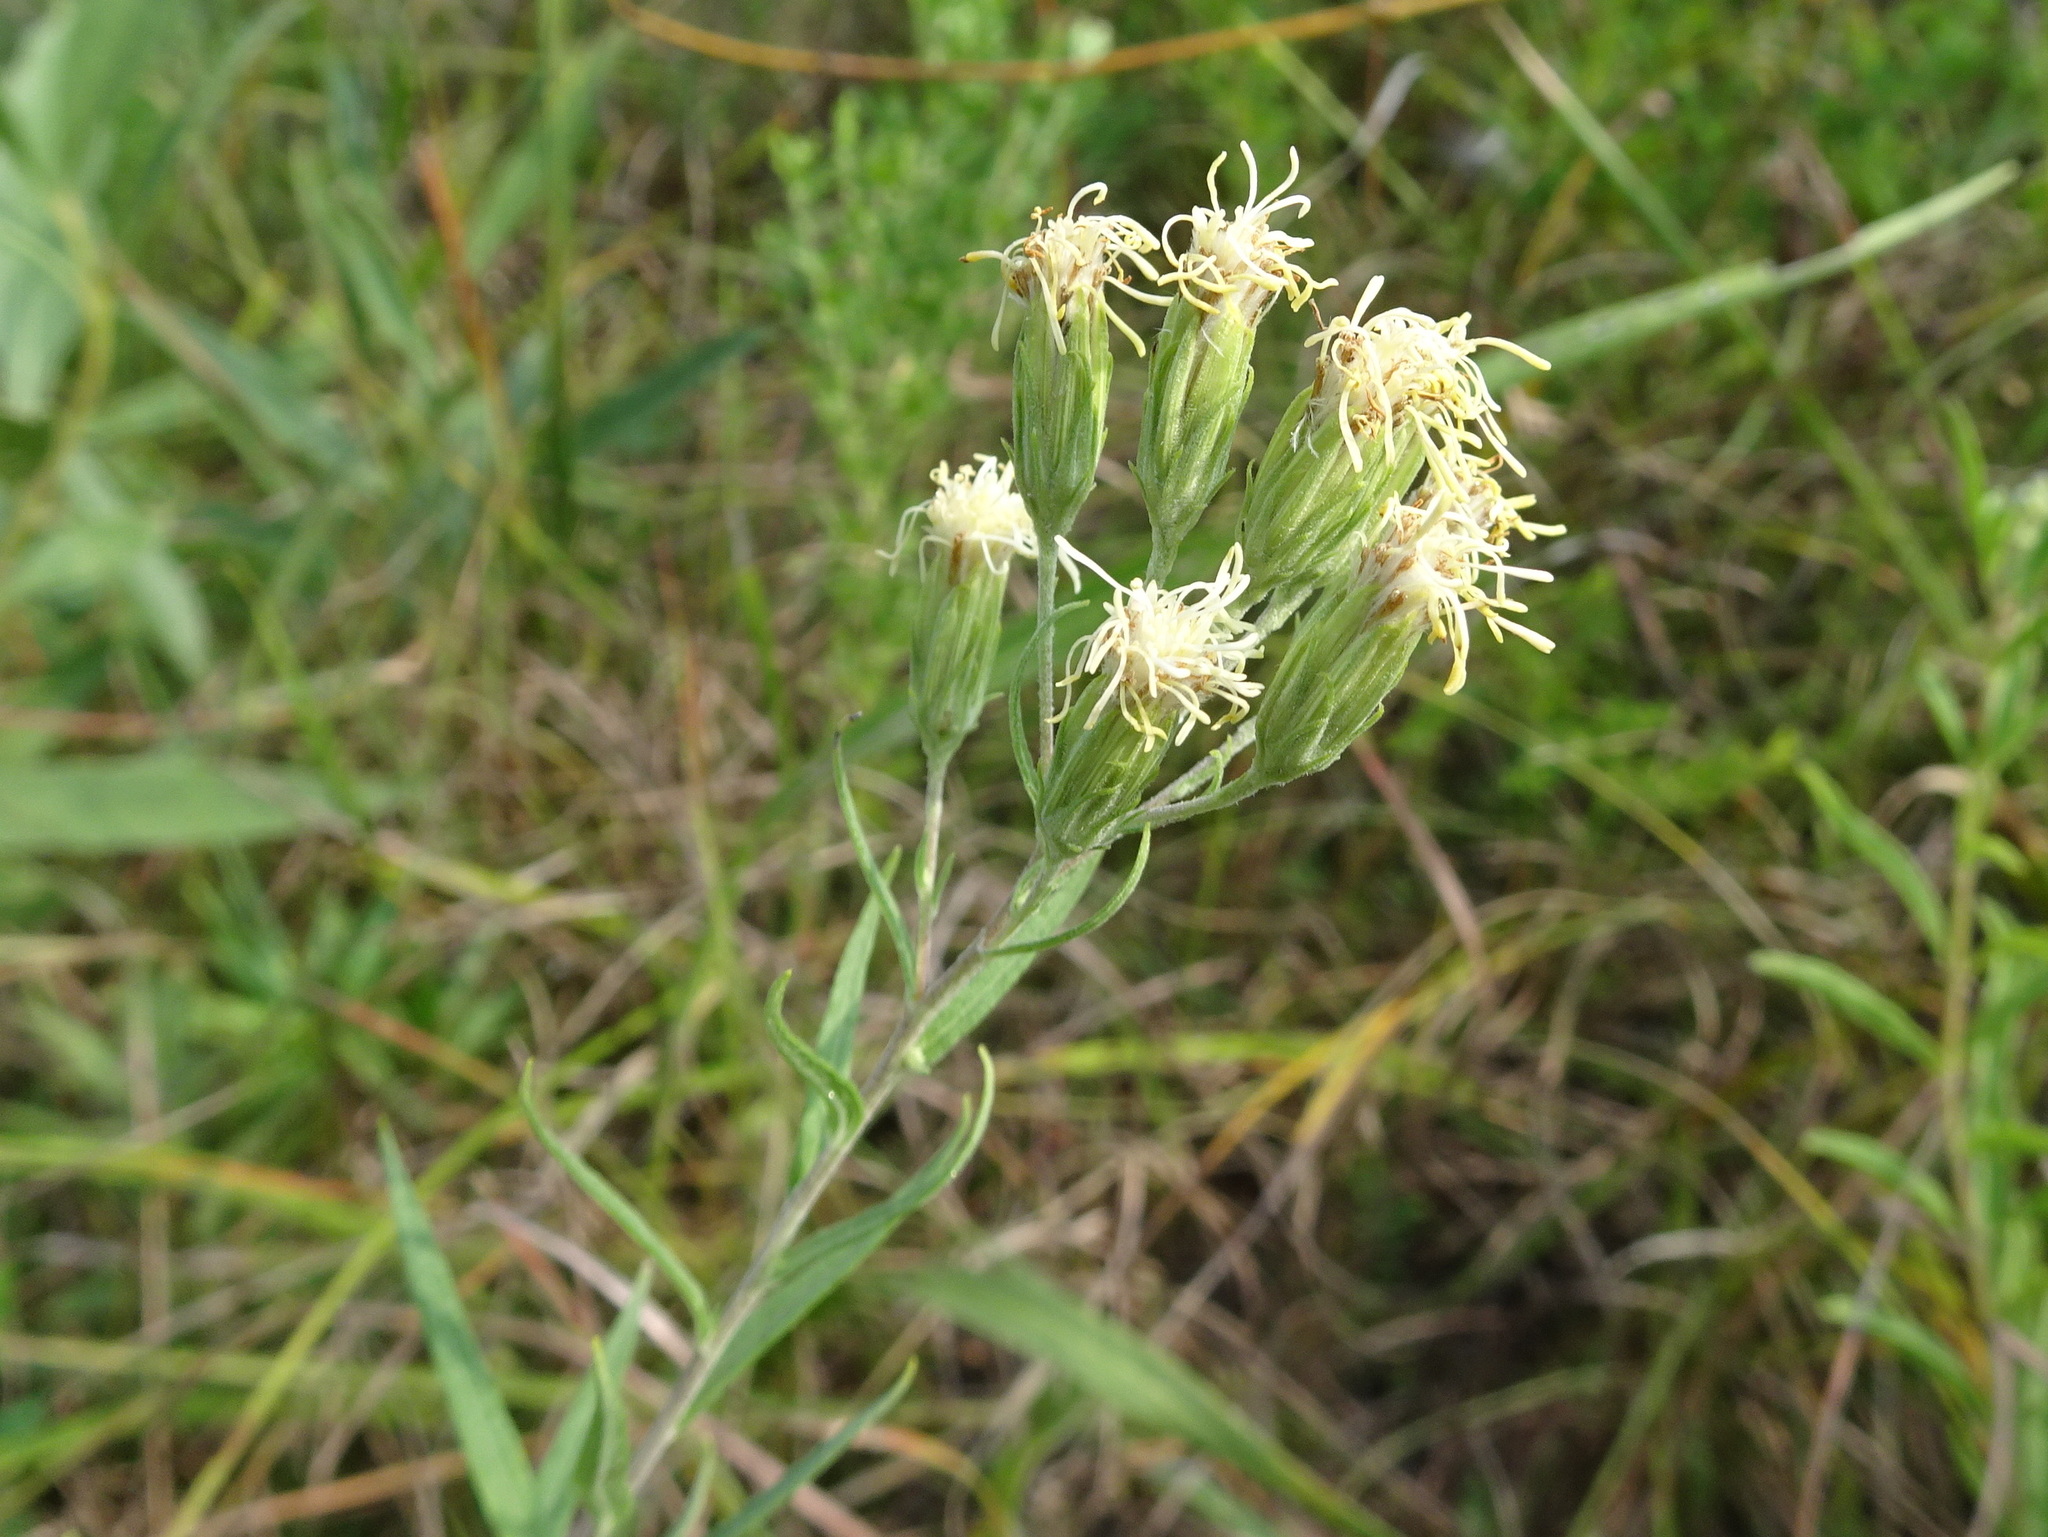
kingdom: Plantae
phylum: Tracheophyta
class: Magnoliopsida
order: Asterales
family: Asteraceae
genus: Brickellia
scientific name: Brickellia eupatorioides
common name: False boneset
